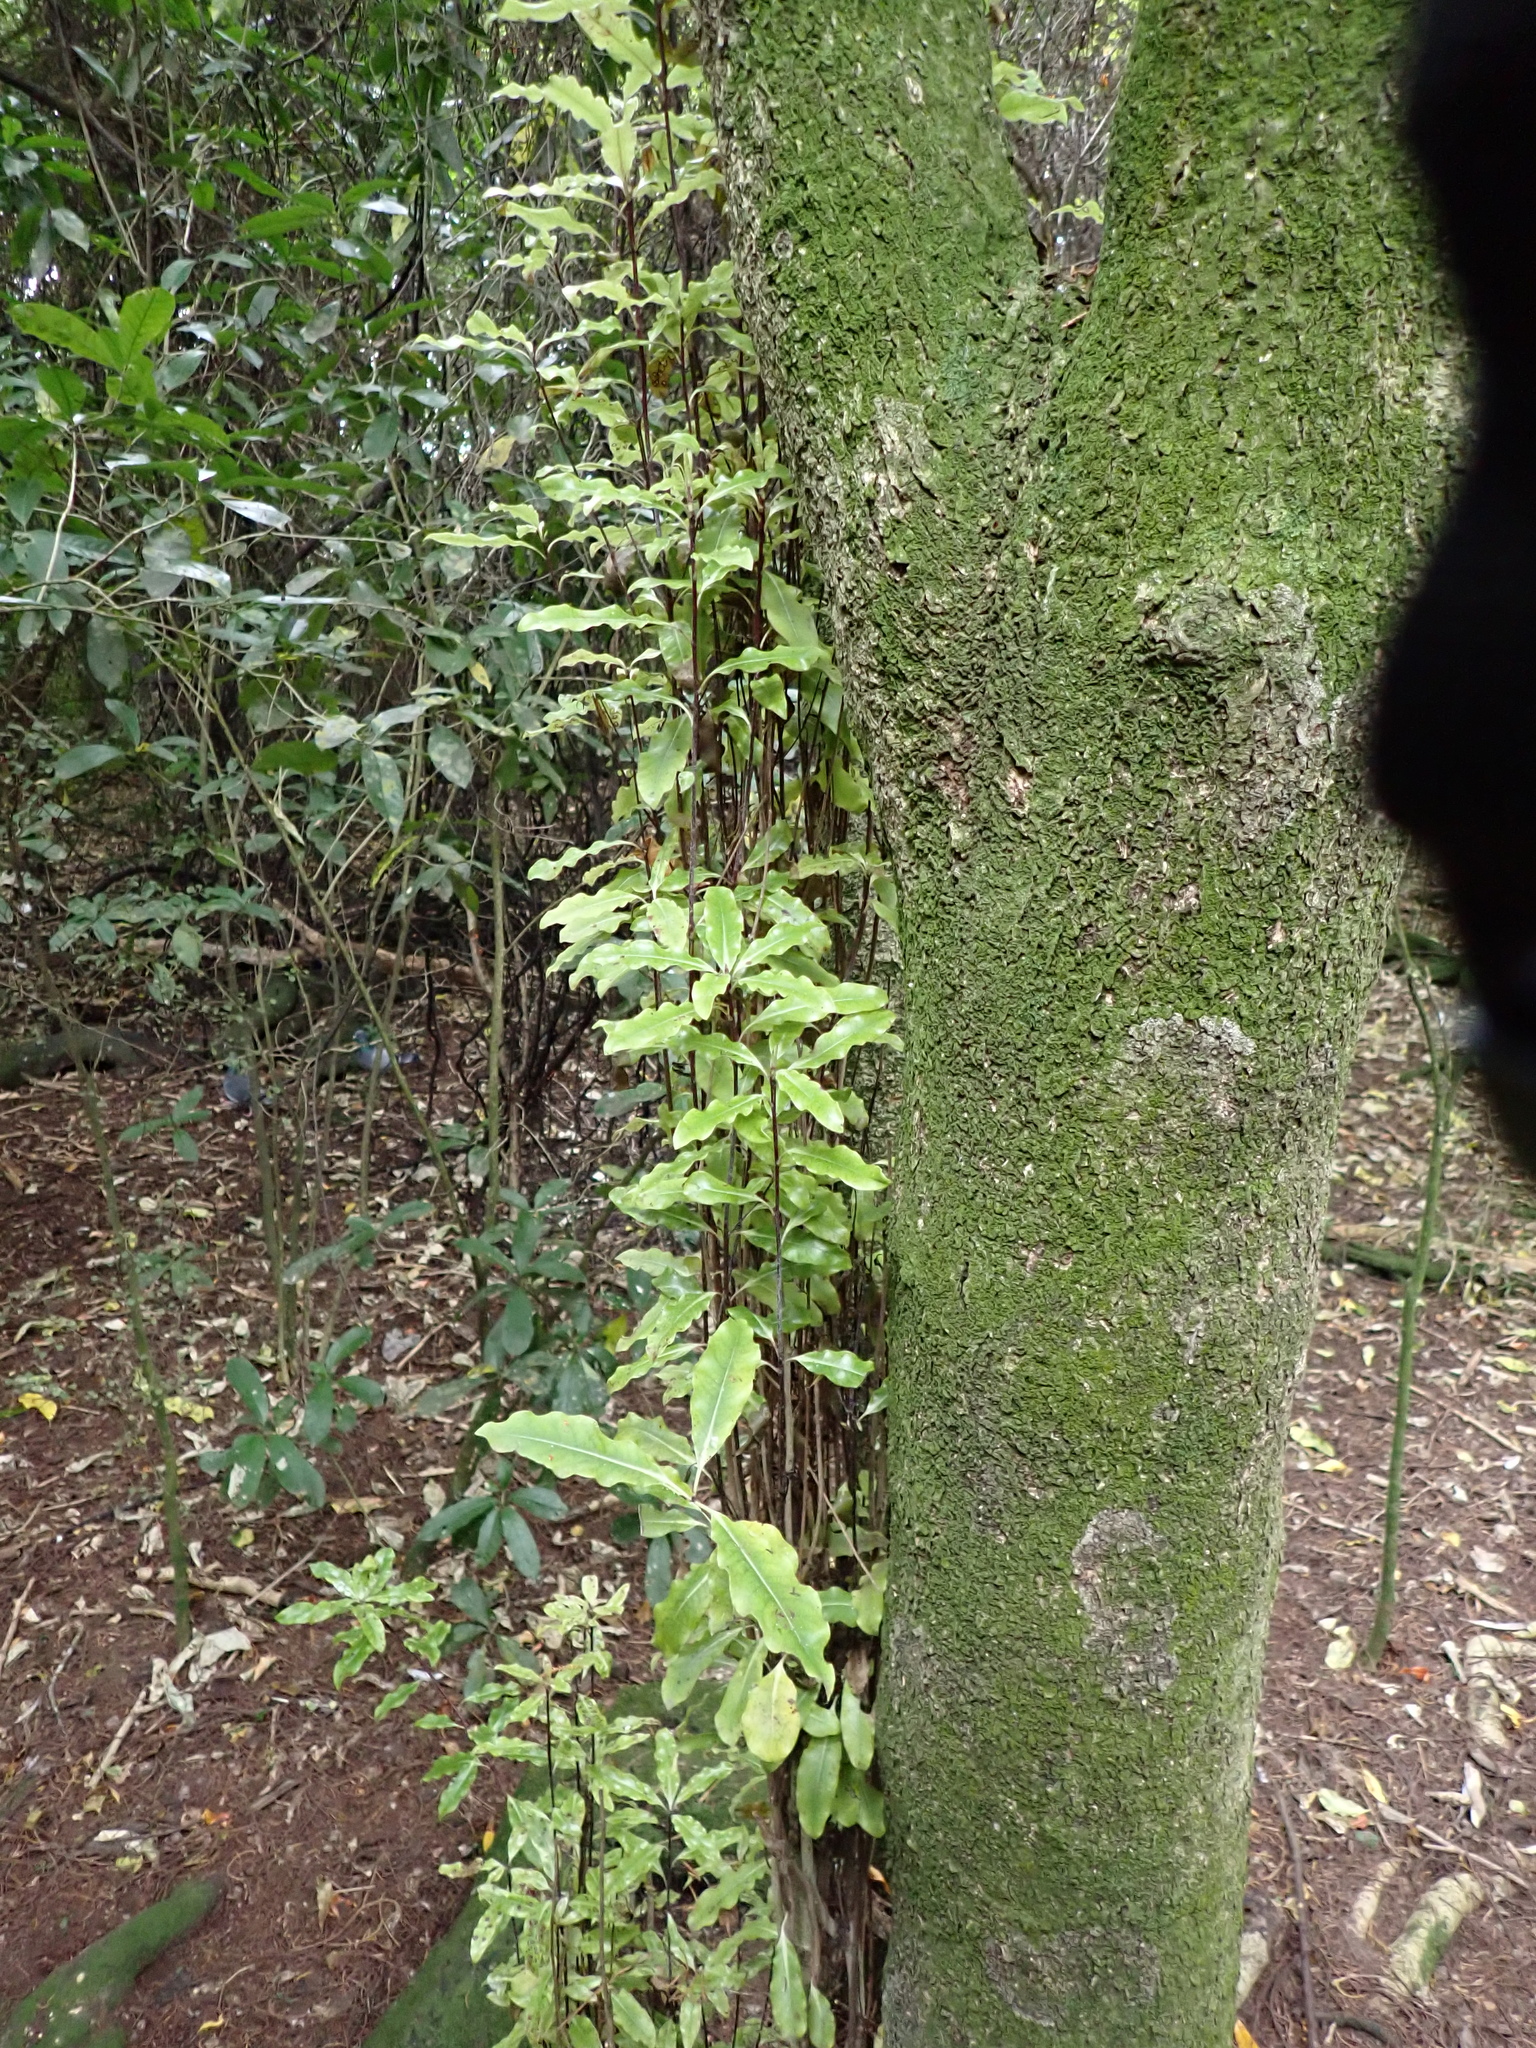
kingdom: Plantae
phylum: Tracheophyta
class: Magnoliopsida
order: Apiales
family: Pittosporaceae
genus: Pittosporum
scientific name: Pittosporum eugenioides
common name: Lemonwood
